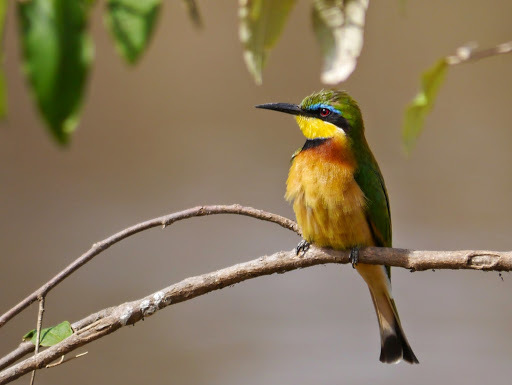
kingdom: Animalia
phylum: Chordata
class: Aves
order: Coraciiformes
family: Meropidae
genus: Merops
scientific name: Merops pusillus
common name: Little bee-eater
